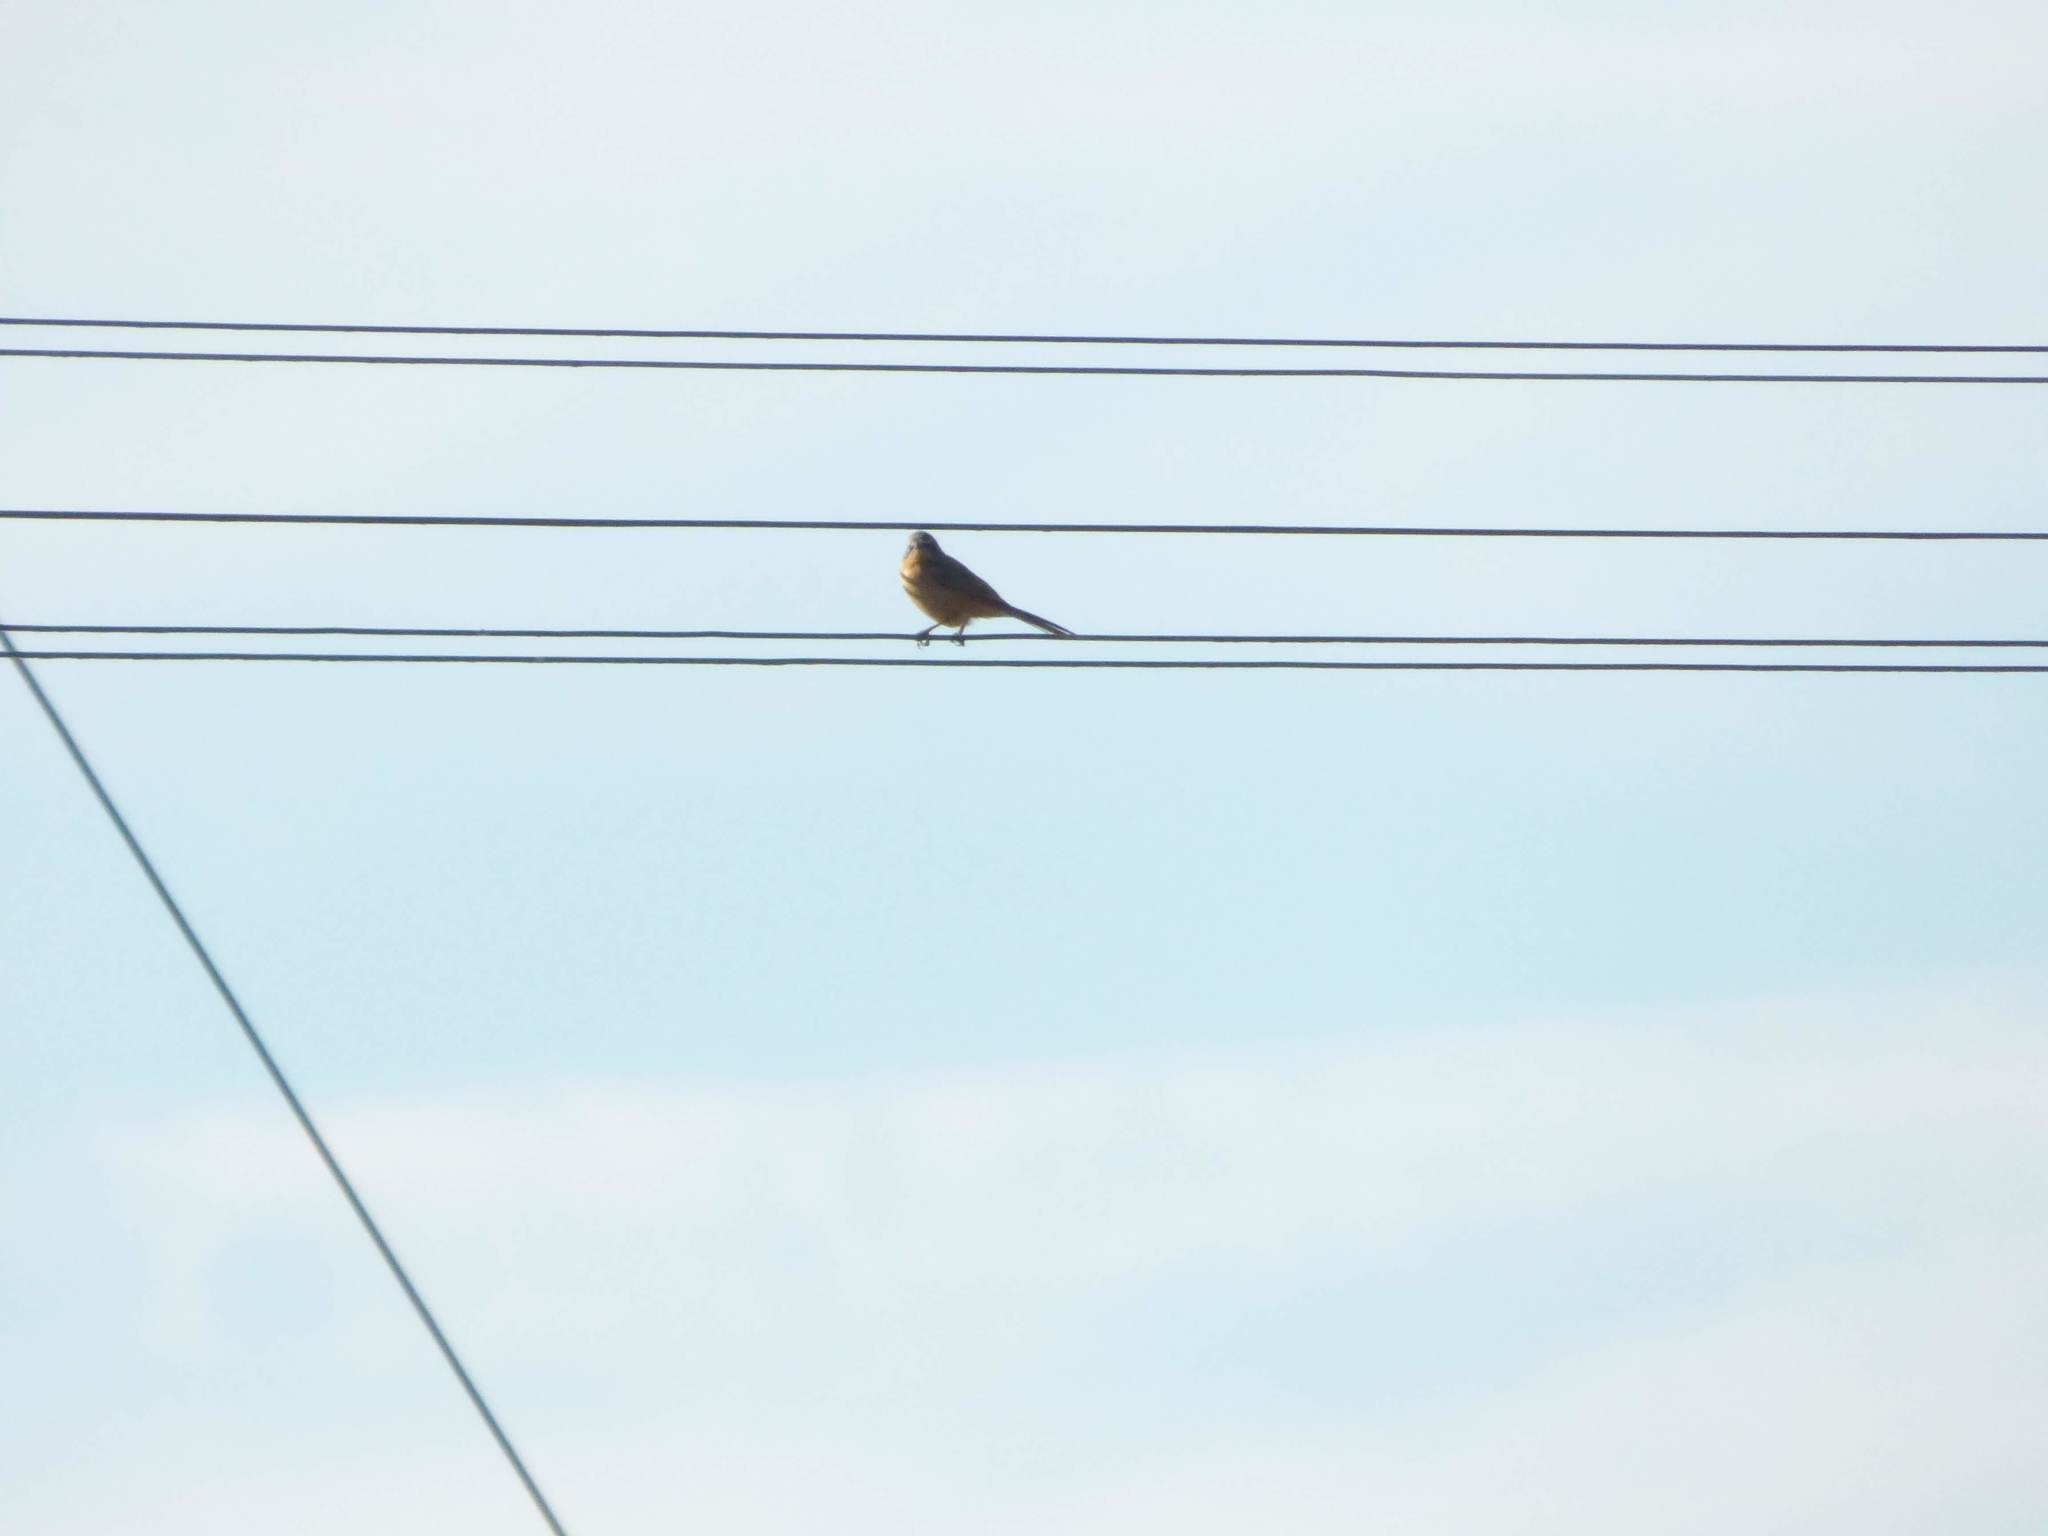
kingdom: Animalia
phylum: Chordata
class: Aves
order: Passeriformes
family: Thraupidae
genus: Donacospiza
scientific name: Donacospiza albifrons
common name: Long-tailed reed finch
